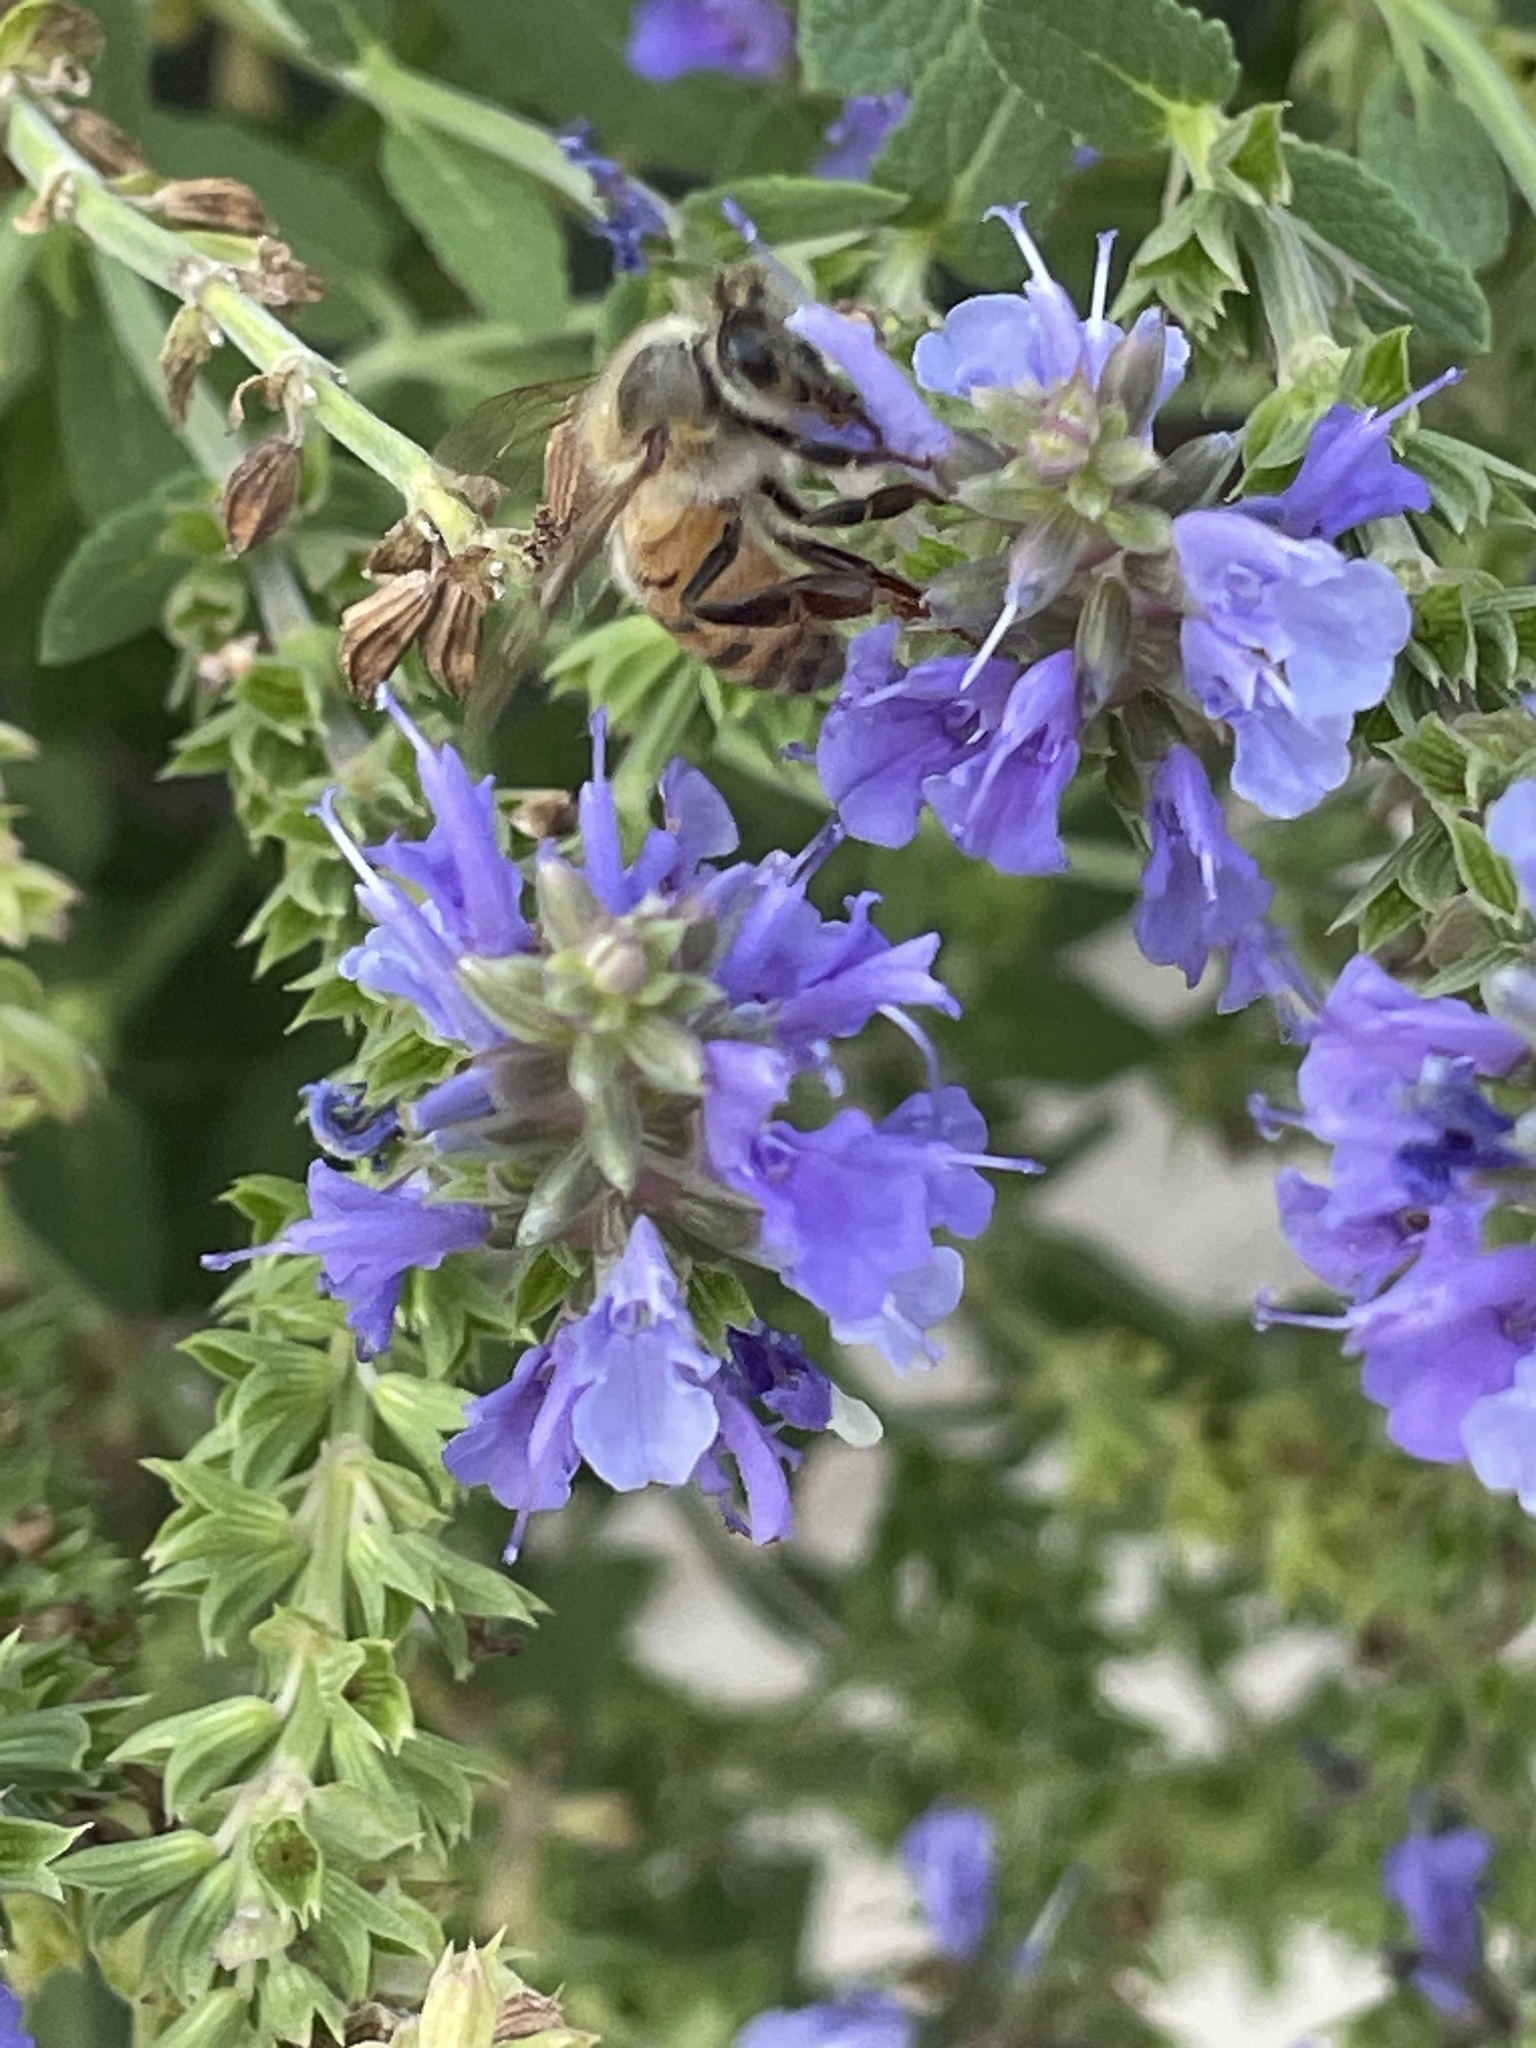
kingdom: Animalia
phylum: Arthropoda
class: Insecta
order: Hymenoptera
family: Apidae
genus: Apis
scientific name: Apis mellifera
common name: Honey bee
